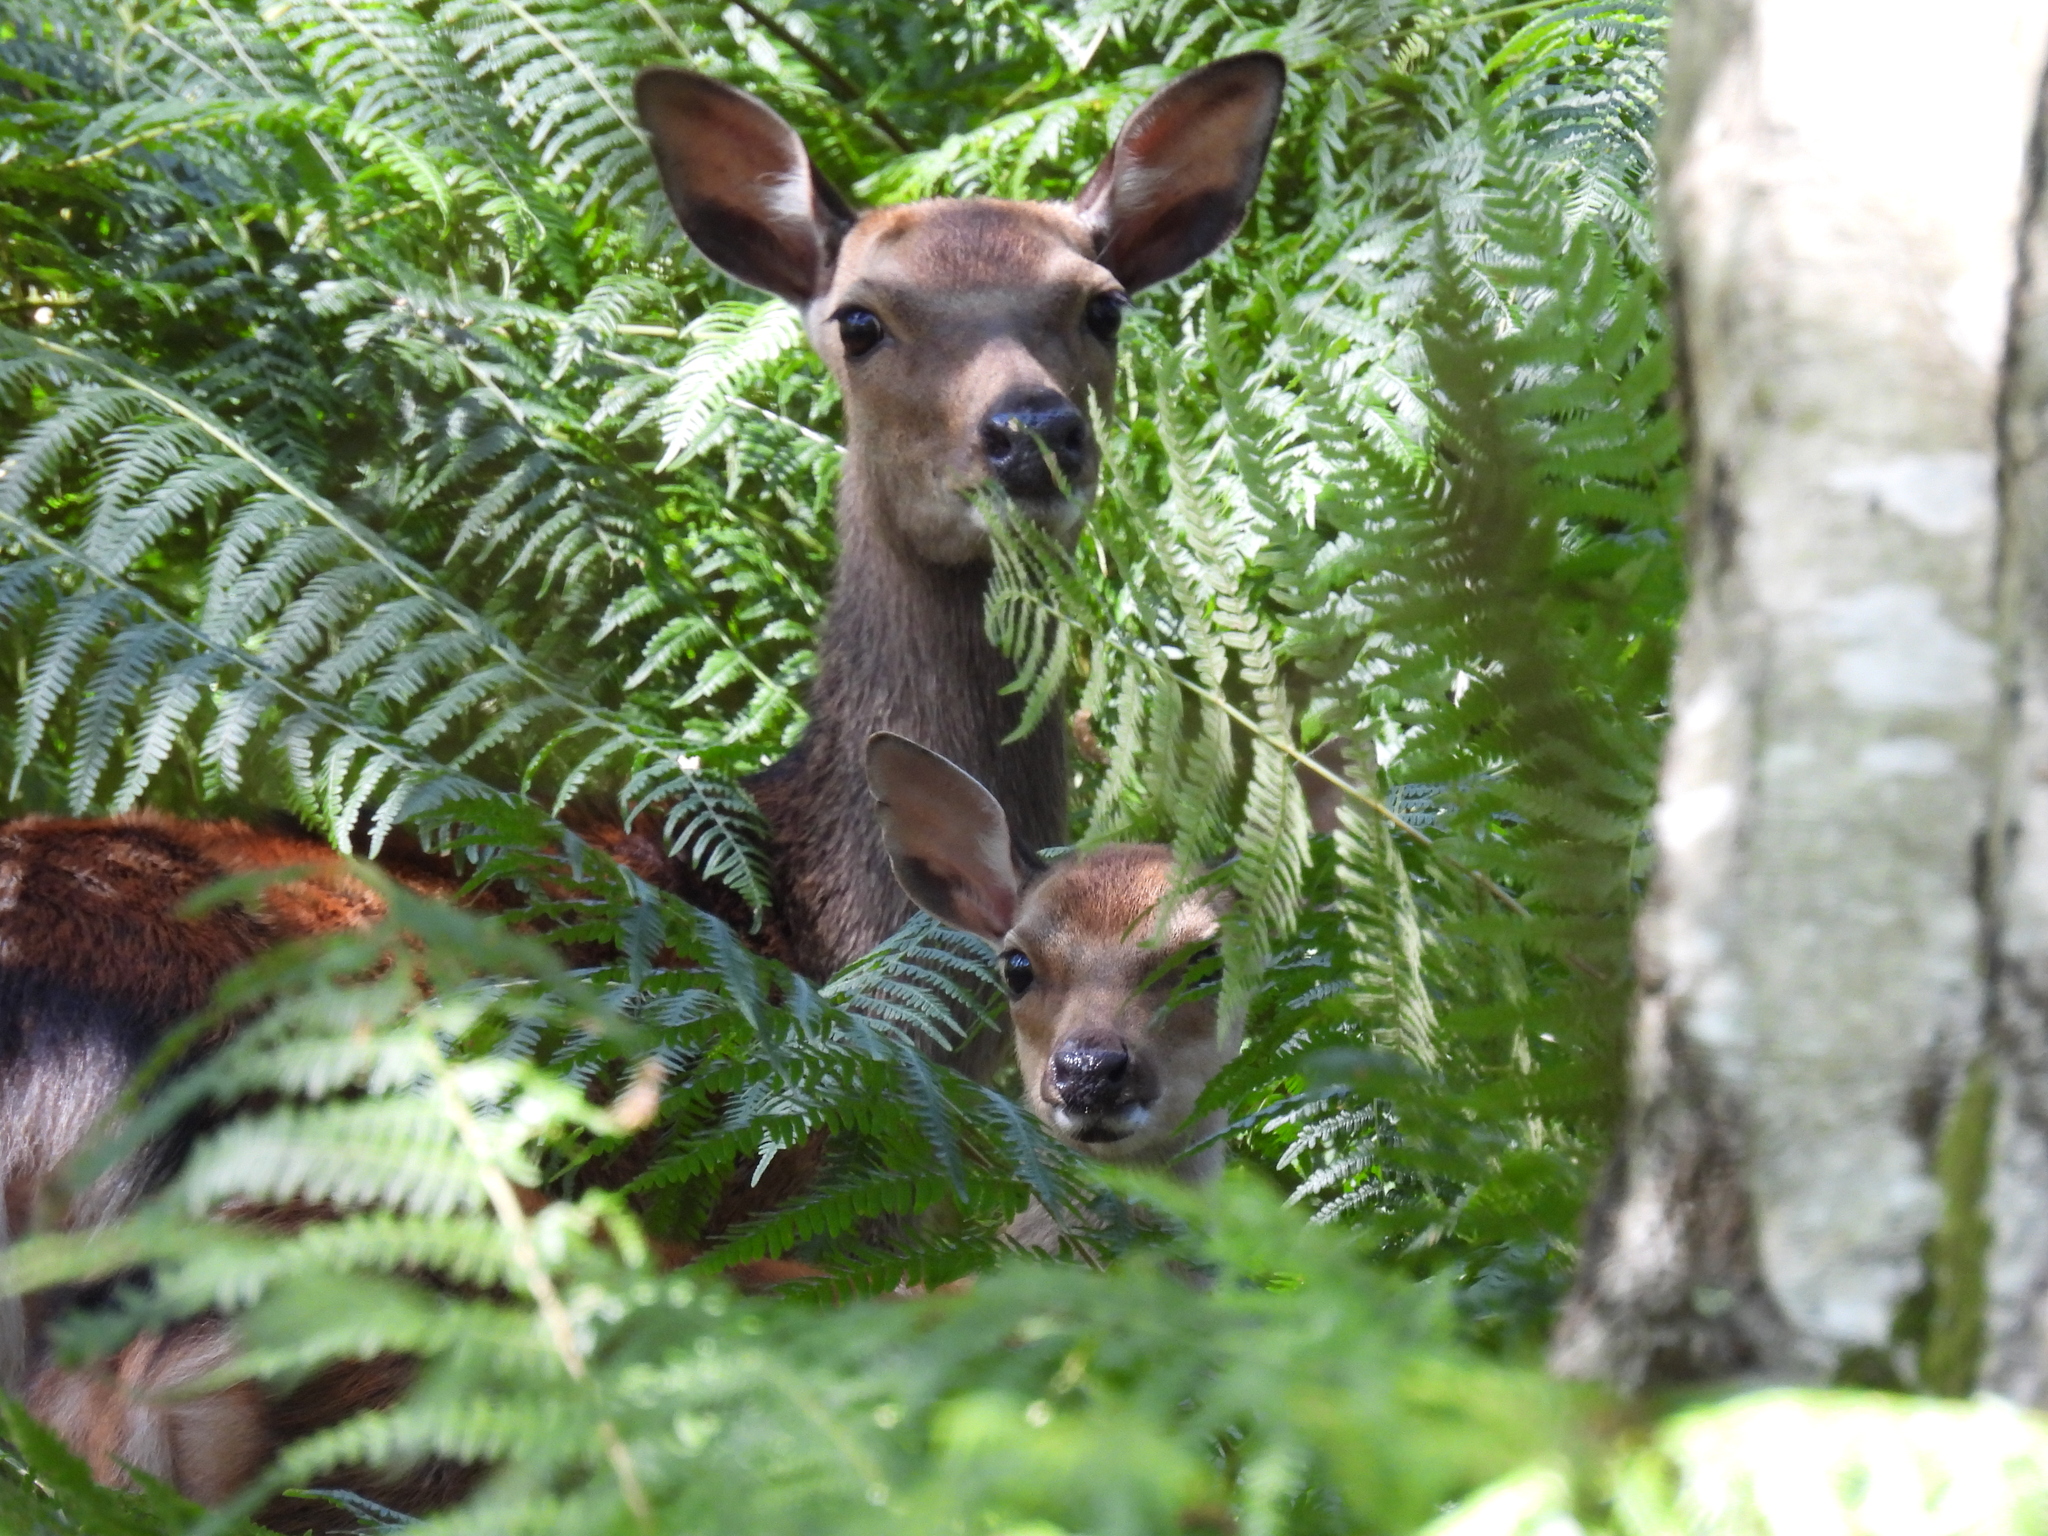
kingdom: Animalia
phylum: Chordata
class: Mammalia
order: Artiodactyla
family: Cervidae
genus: Cervus
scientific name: Cervus nippon
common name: Sika deer
